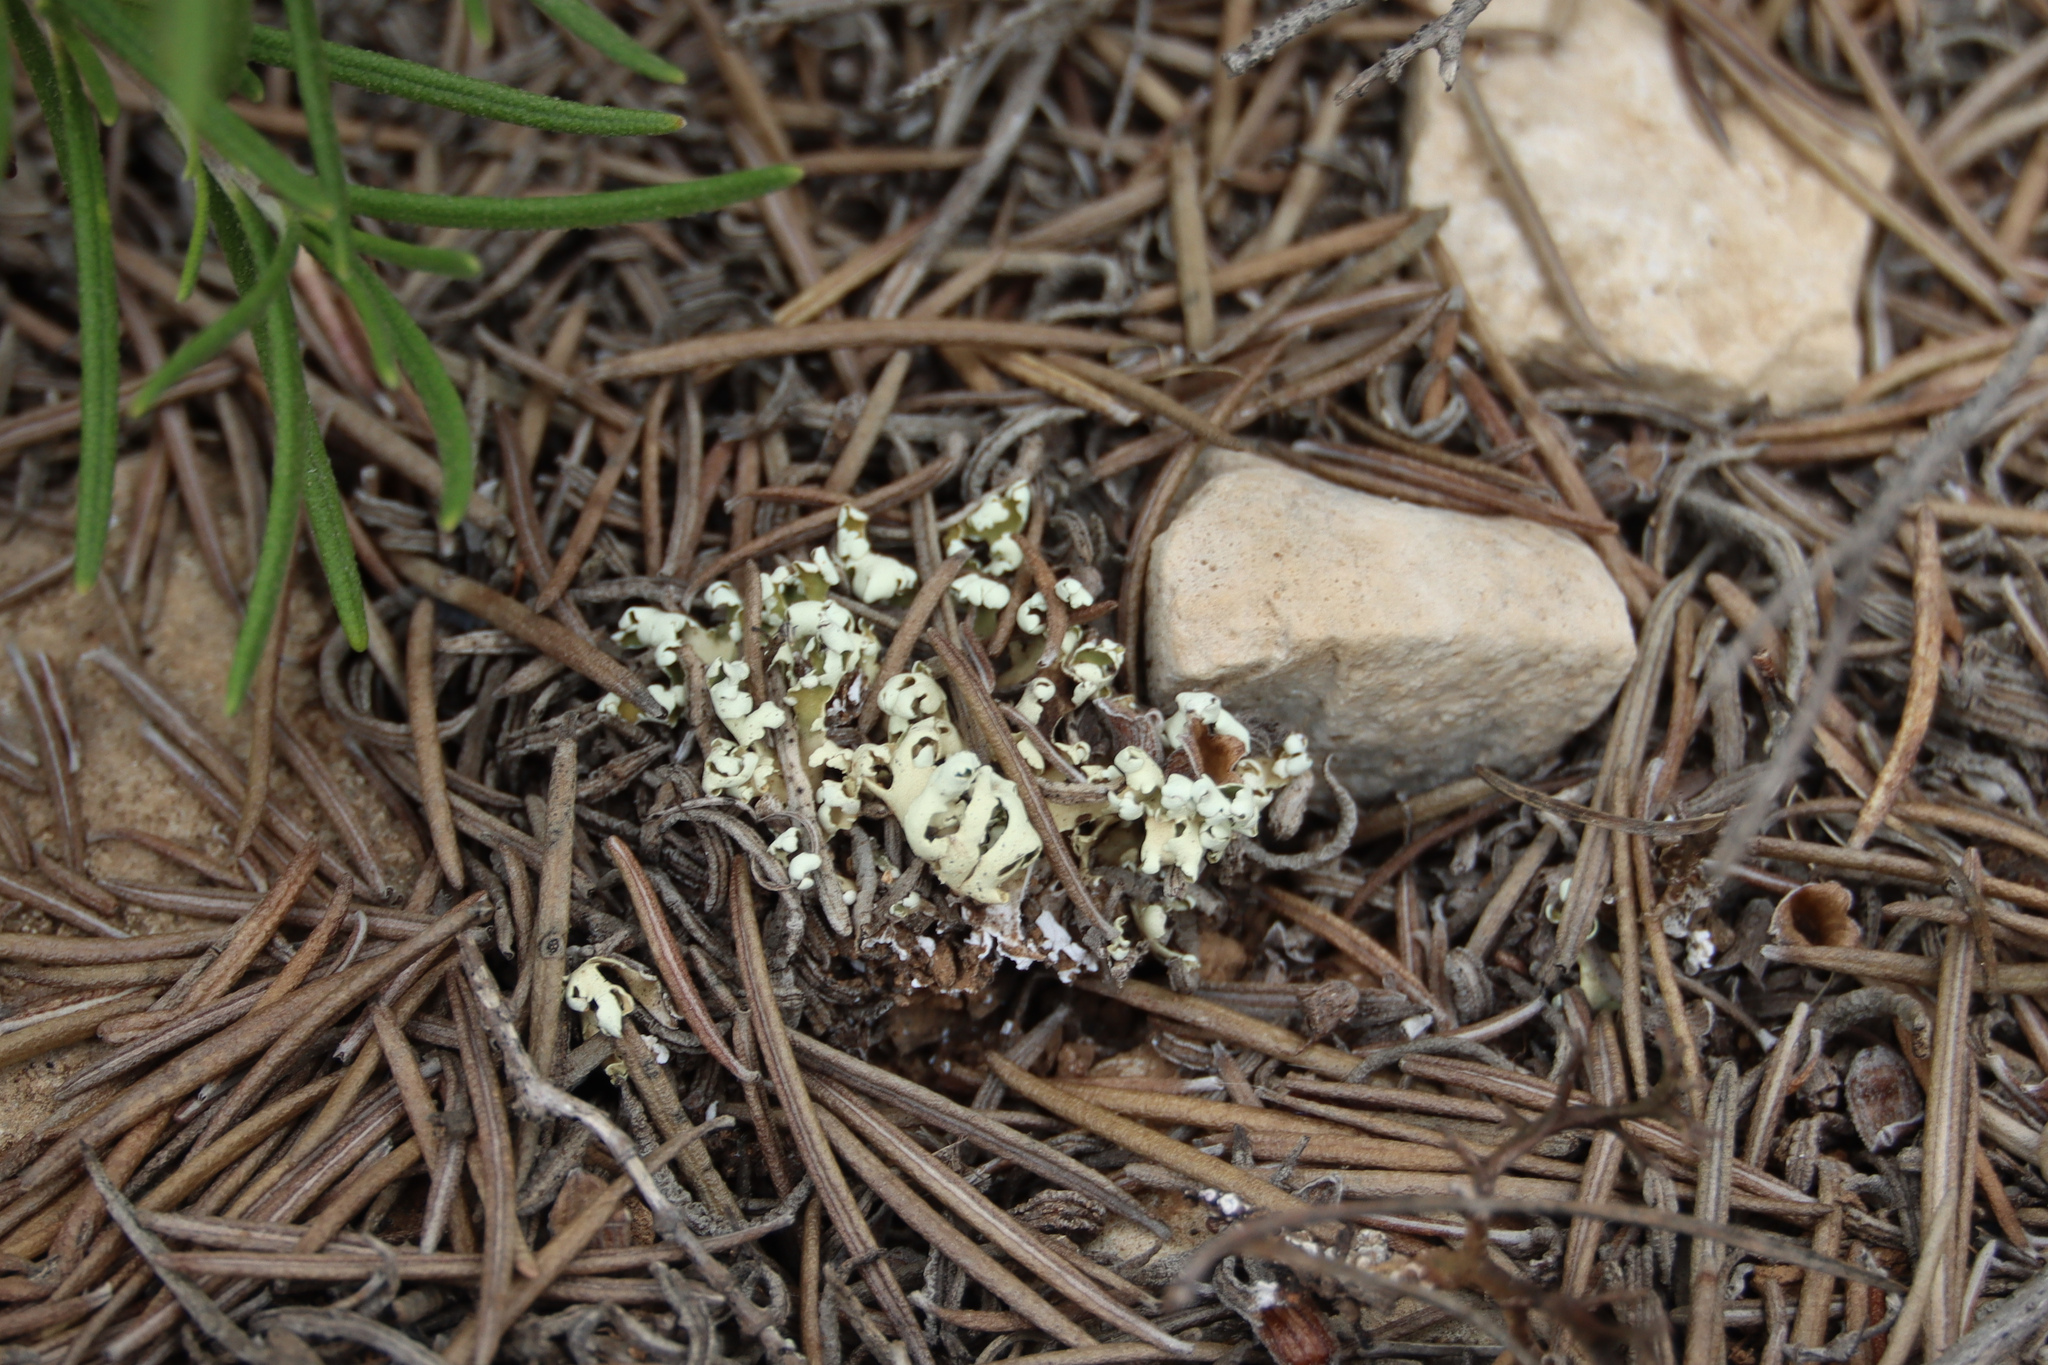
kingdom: Fungi
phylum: Ascomycota
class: Lecanoromycetes
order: Lecanorales
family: Cladoniaceae
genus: Cladonia
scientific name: Cladonia foliacea
